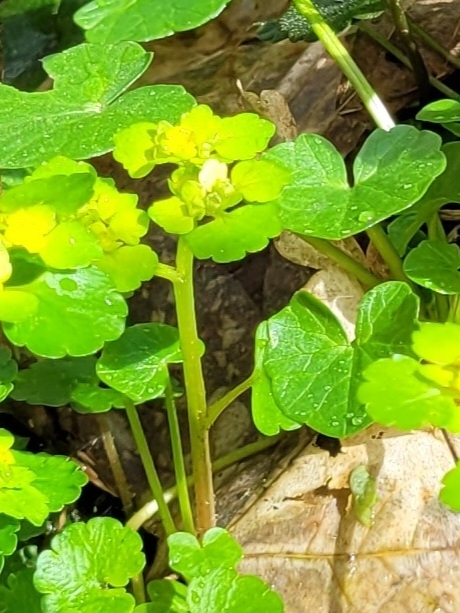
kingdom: Plantae
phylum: Tracheophyta
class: Magnoliopsida
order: Saxifragales
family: Saxifragaceae
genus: Chrysosplenium
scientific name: Chrysosplenium alternifolium
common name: Alternate-leaved golden-saxifrage
